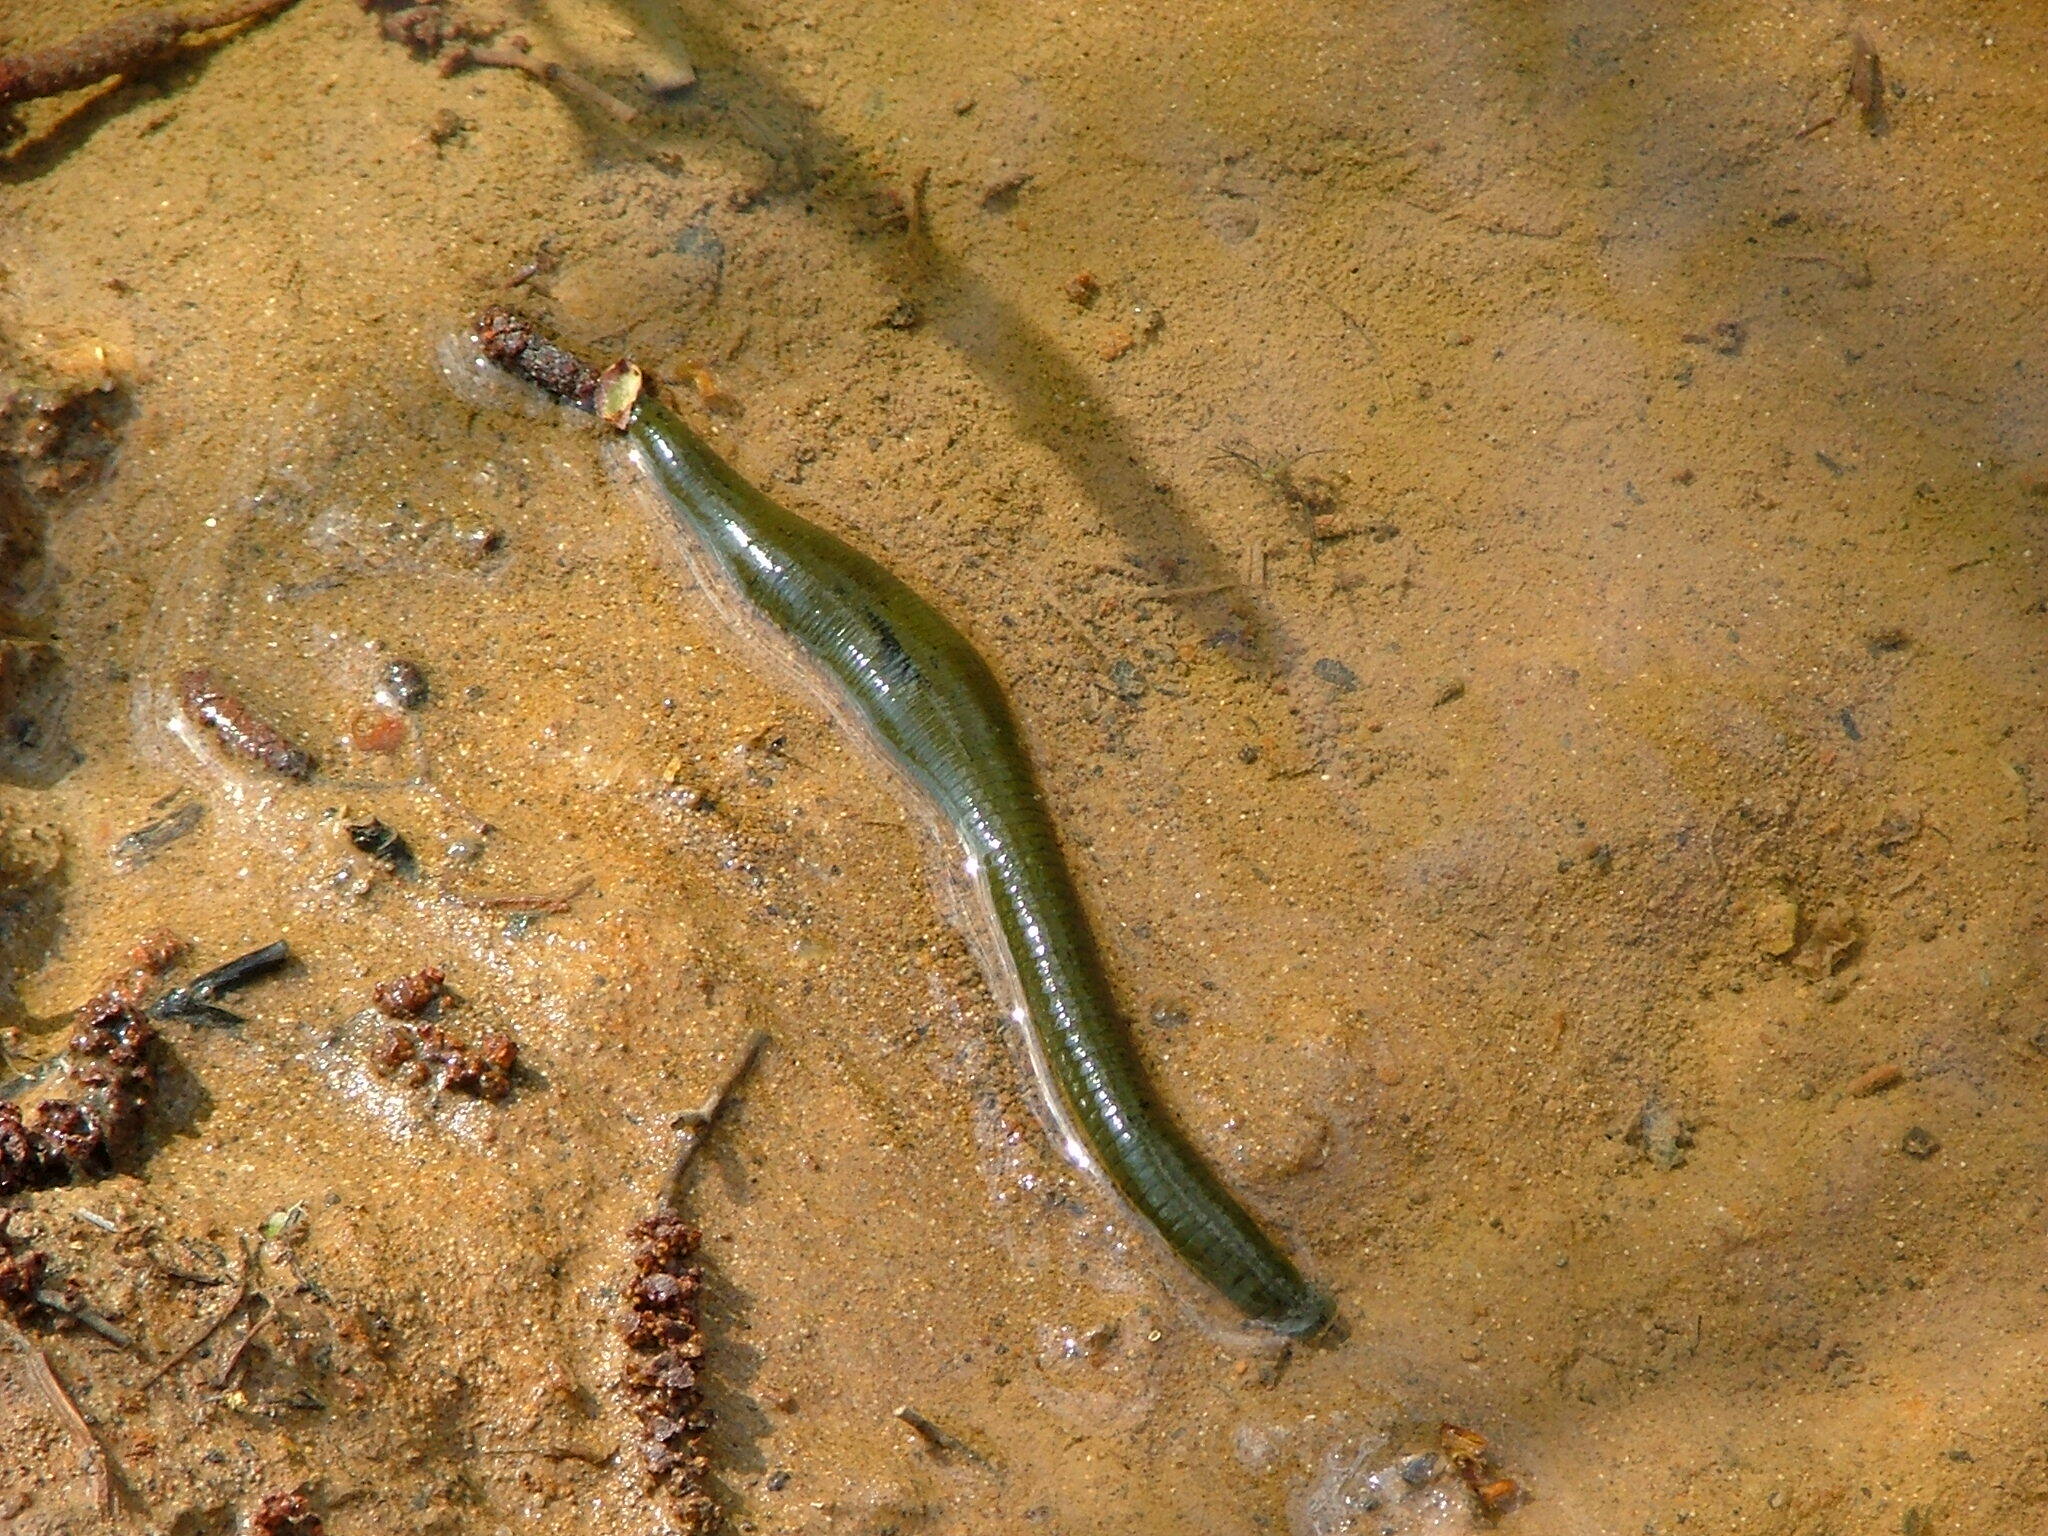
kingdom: Animalia
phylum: Annelida
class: Clitellata
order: Arhynchobdellida
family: Haemopidae
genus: Haemopis
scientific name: Haemopis sanguisuga
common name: Horse leech
